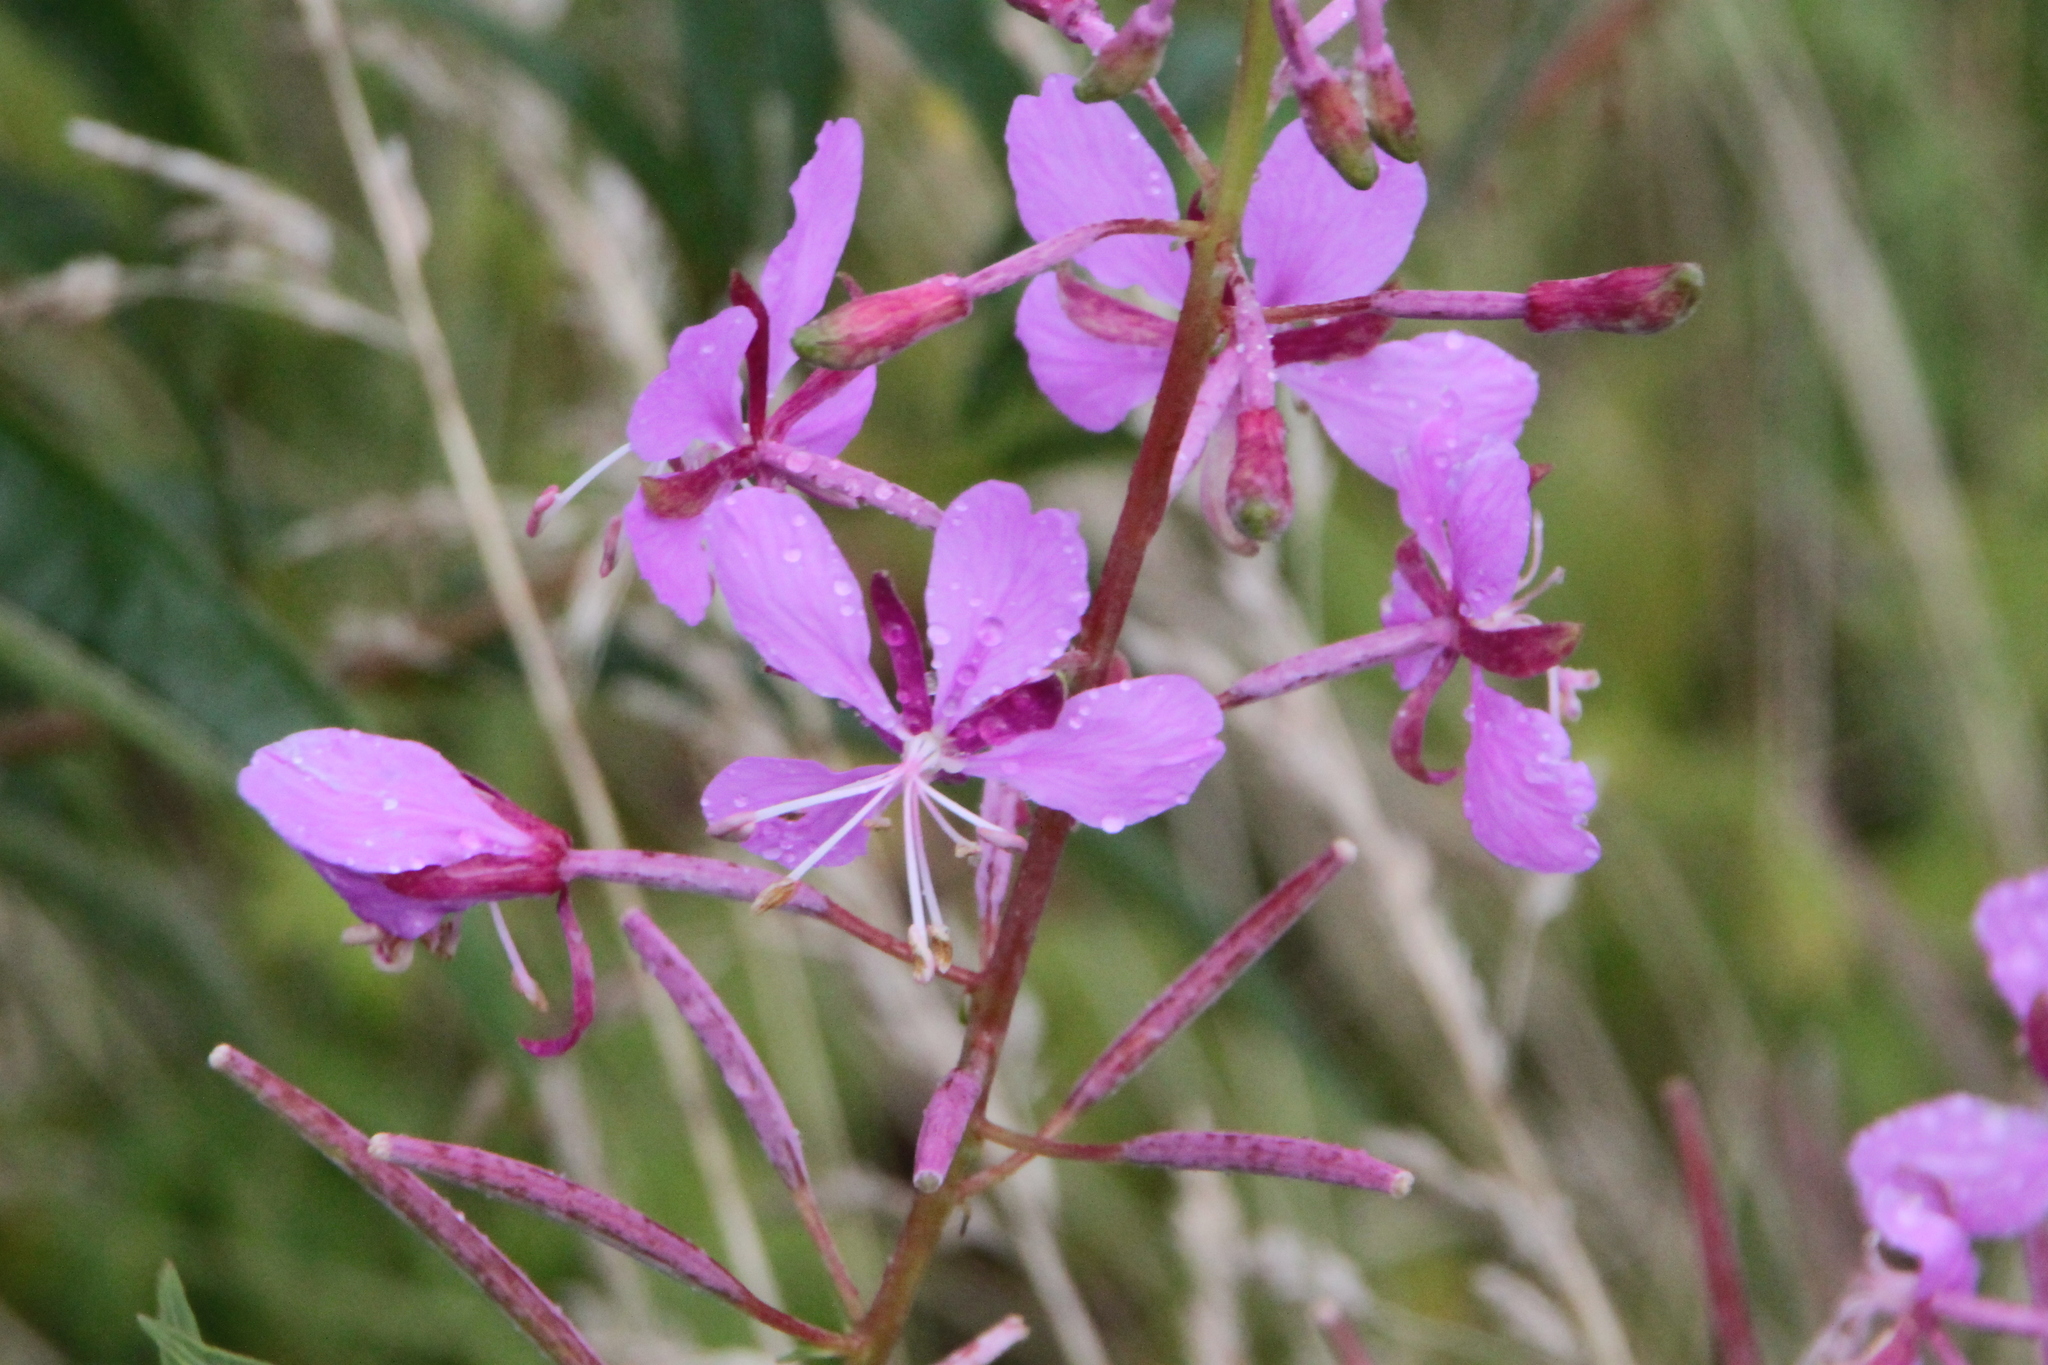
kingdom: Plantae
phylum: Tracheophyta
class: Magnoliopsida
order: Myrtales
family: Onagraceae
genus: Chamaenerion
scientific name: Chamaenerion angustifolium
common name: Fireweed
